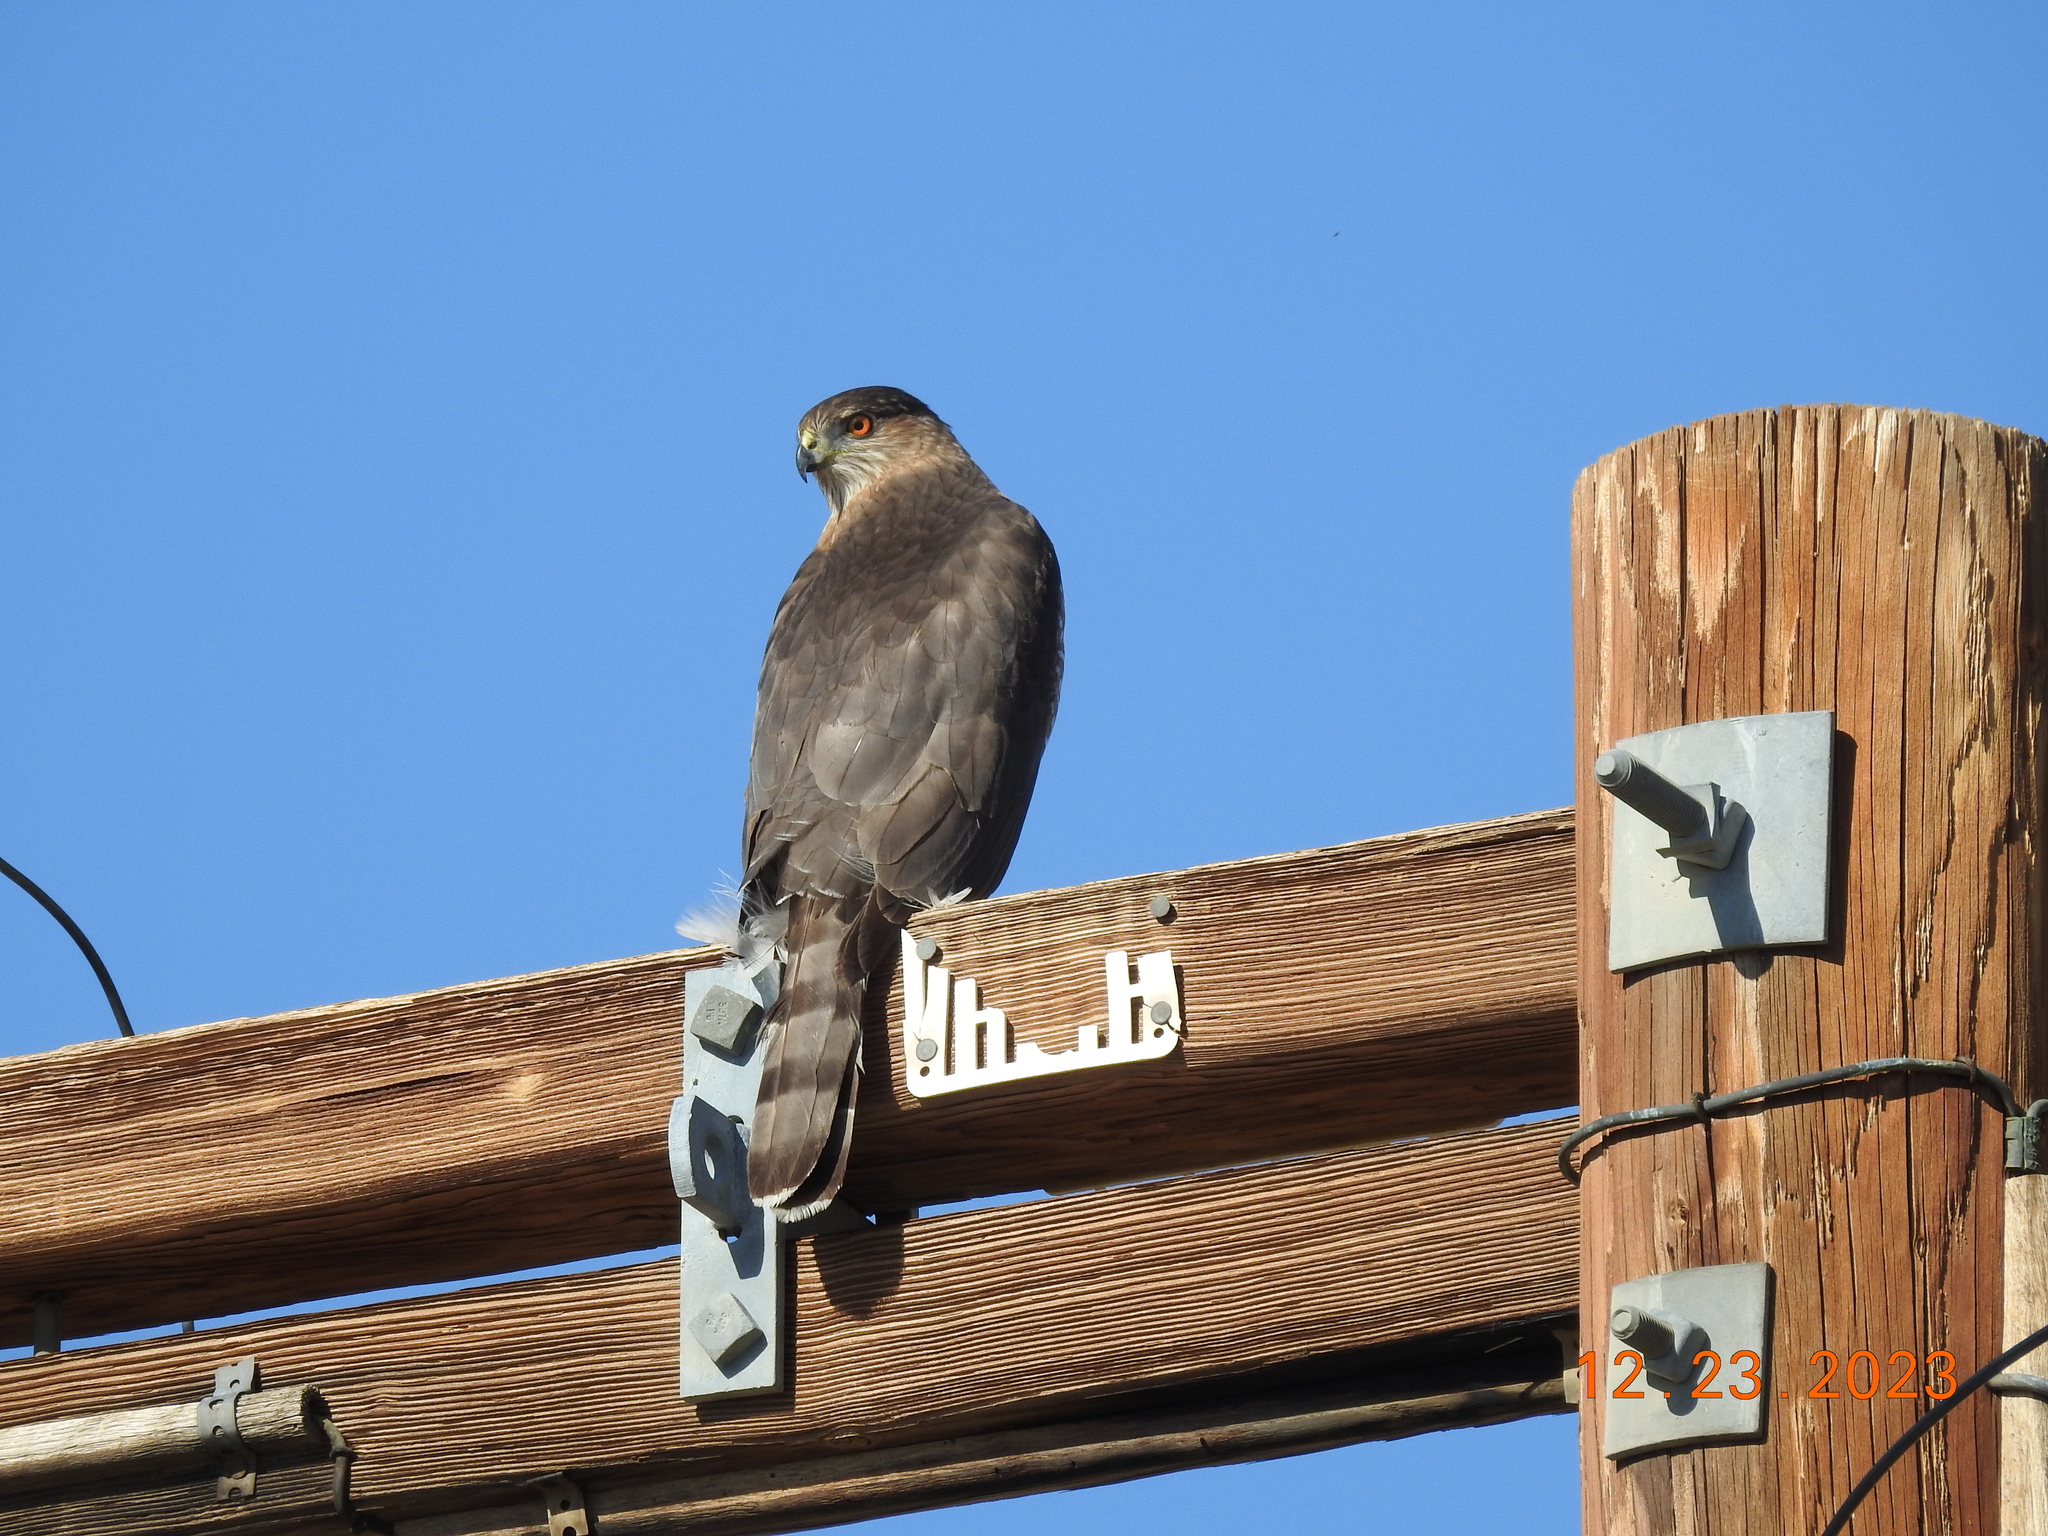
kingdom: Animalia
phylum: Chordata
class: Aves
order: Accipitriformes
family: Accipitridae
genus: Accipiter
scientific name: Accipiter cooperii
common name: Cooper's hawk
